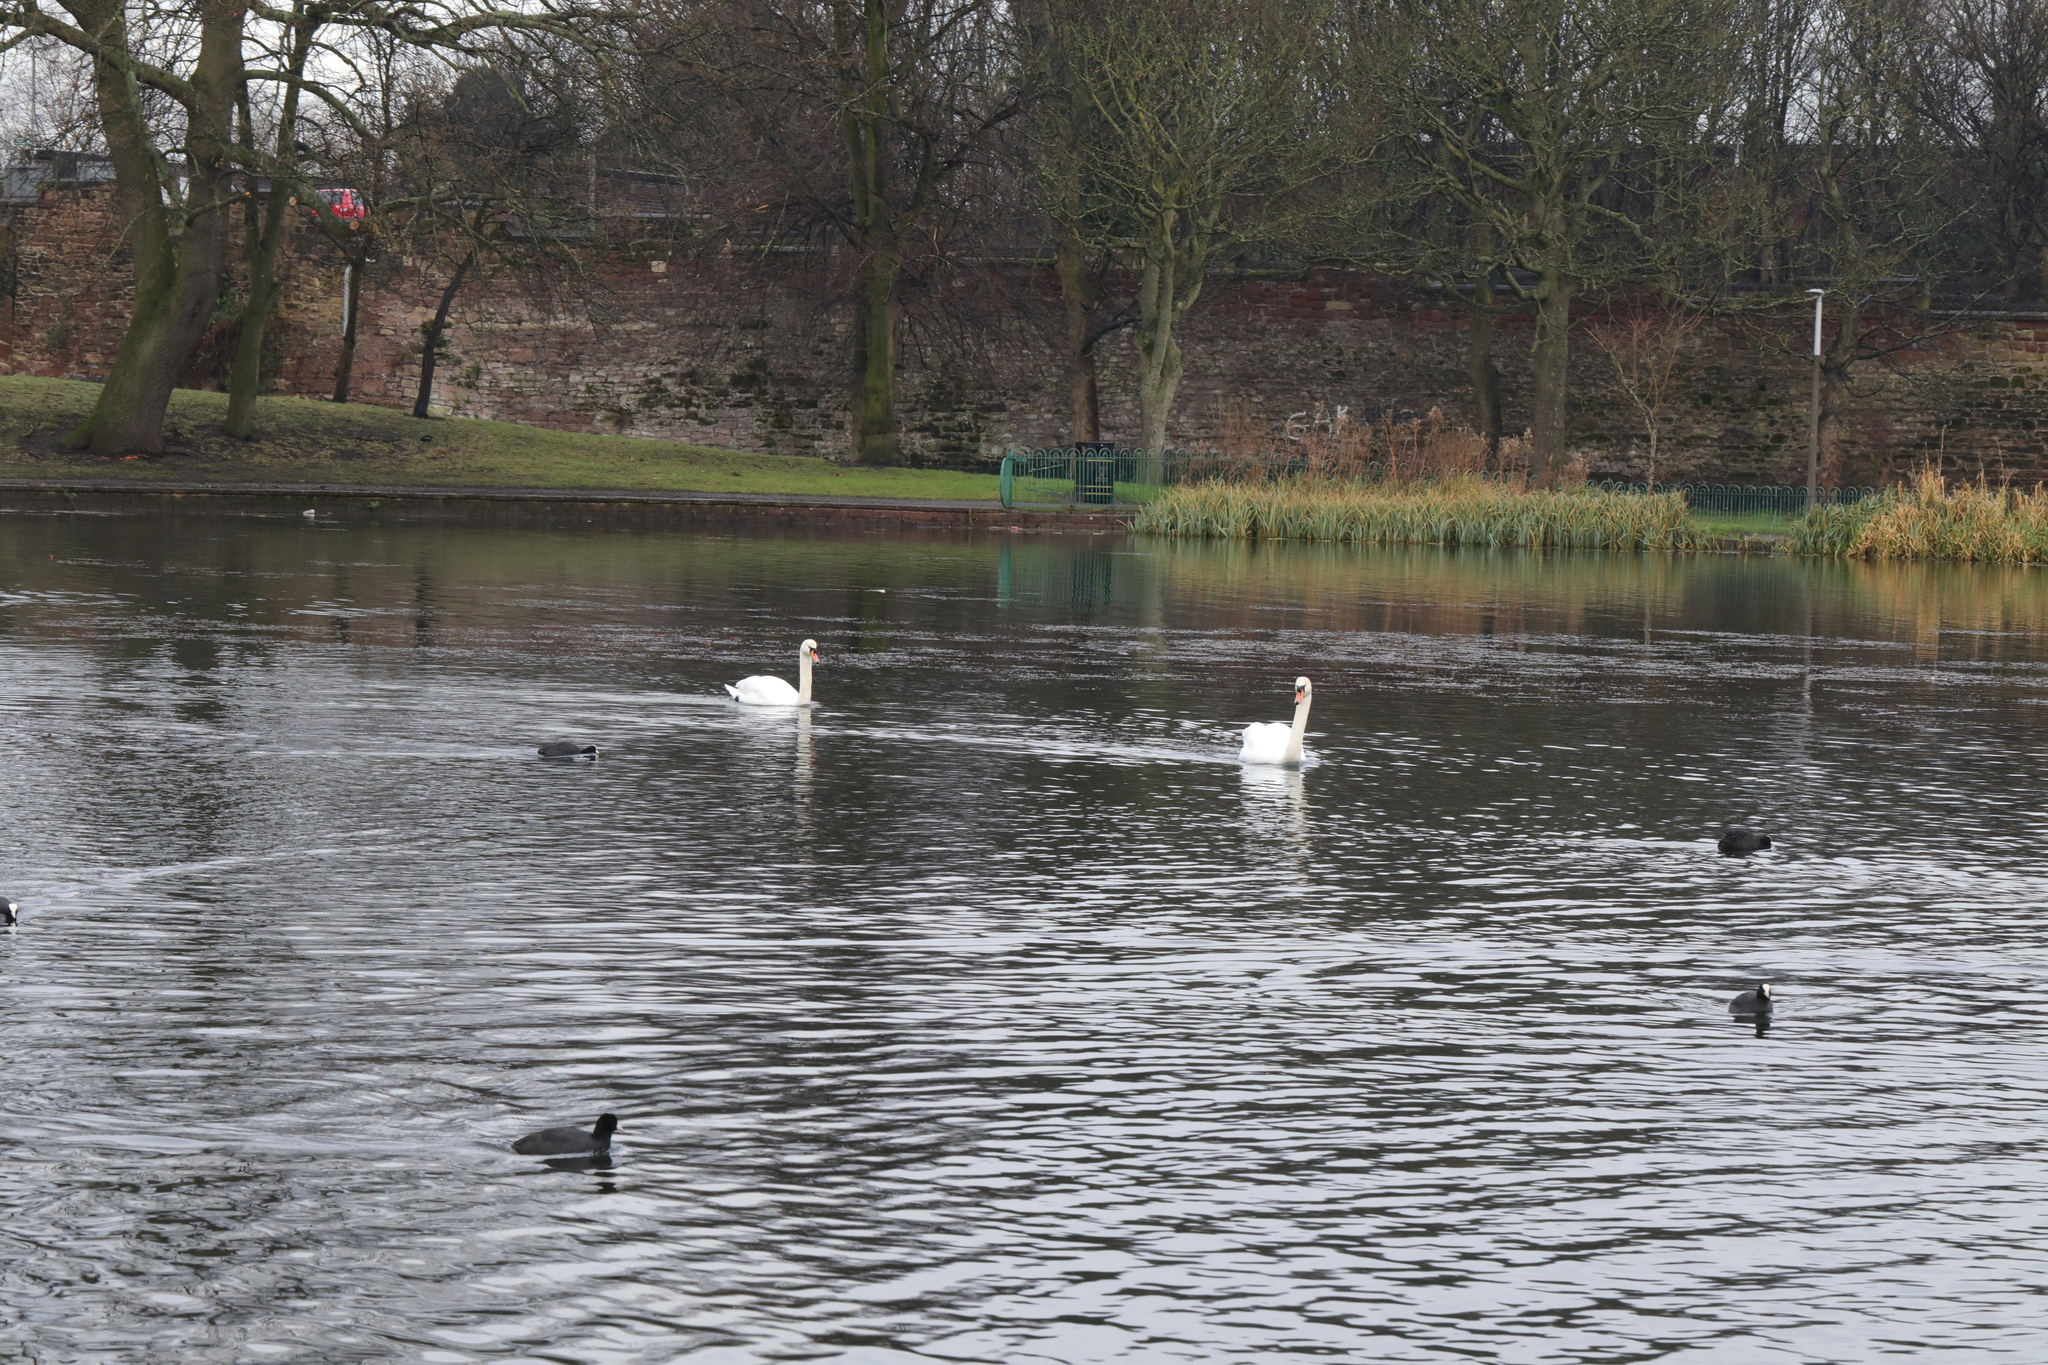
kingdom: Animalia
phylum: Chordata
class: Aves
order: Anseriformes
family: Anatidae
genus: Cygnus
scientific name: Cygnus olor
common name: Mute swan
